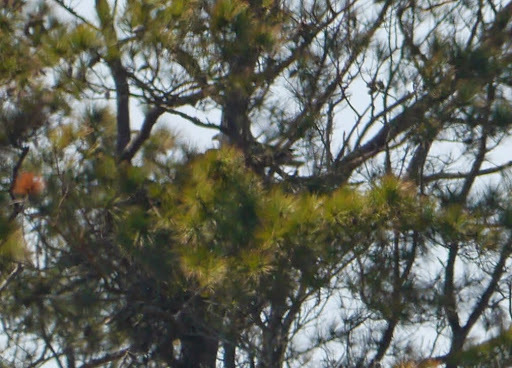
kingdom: Animalia
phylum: Chordata
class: Aves
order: Accipitriformes
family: Accipitridae
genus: Haliaeetus
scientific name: Haliaeetus leucocephalus
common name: Bald eagle
